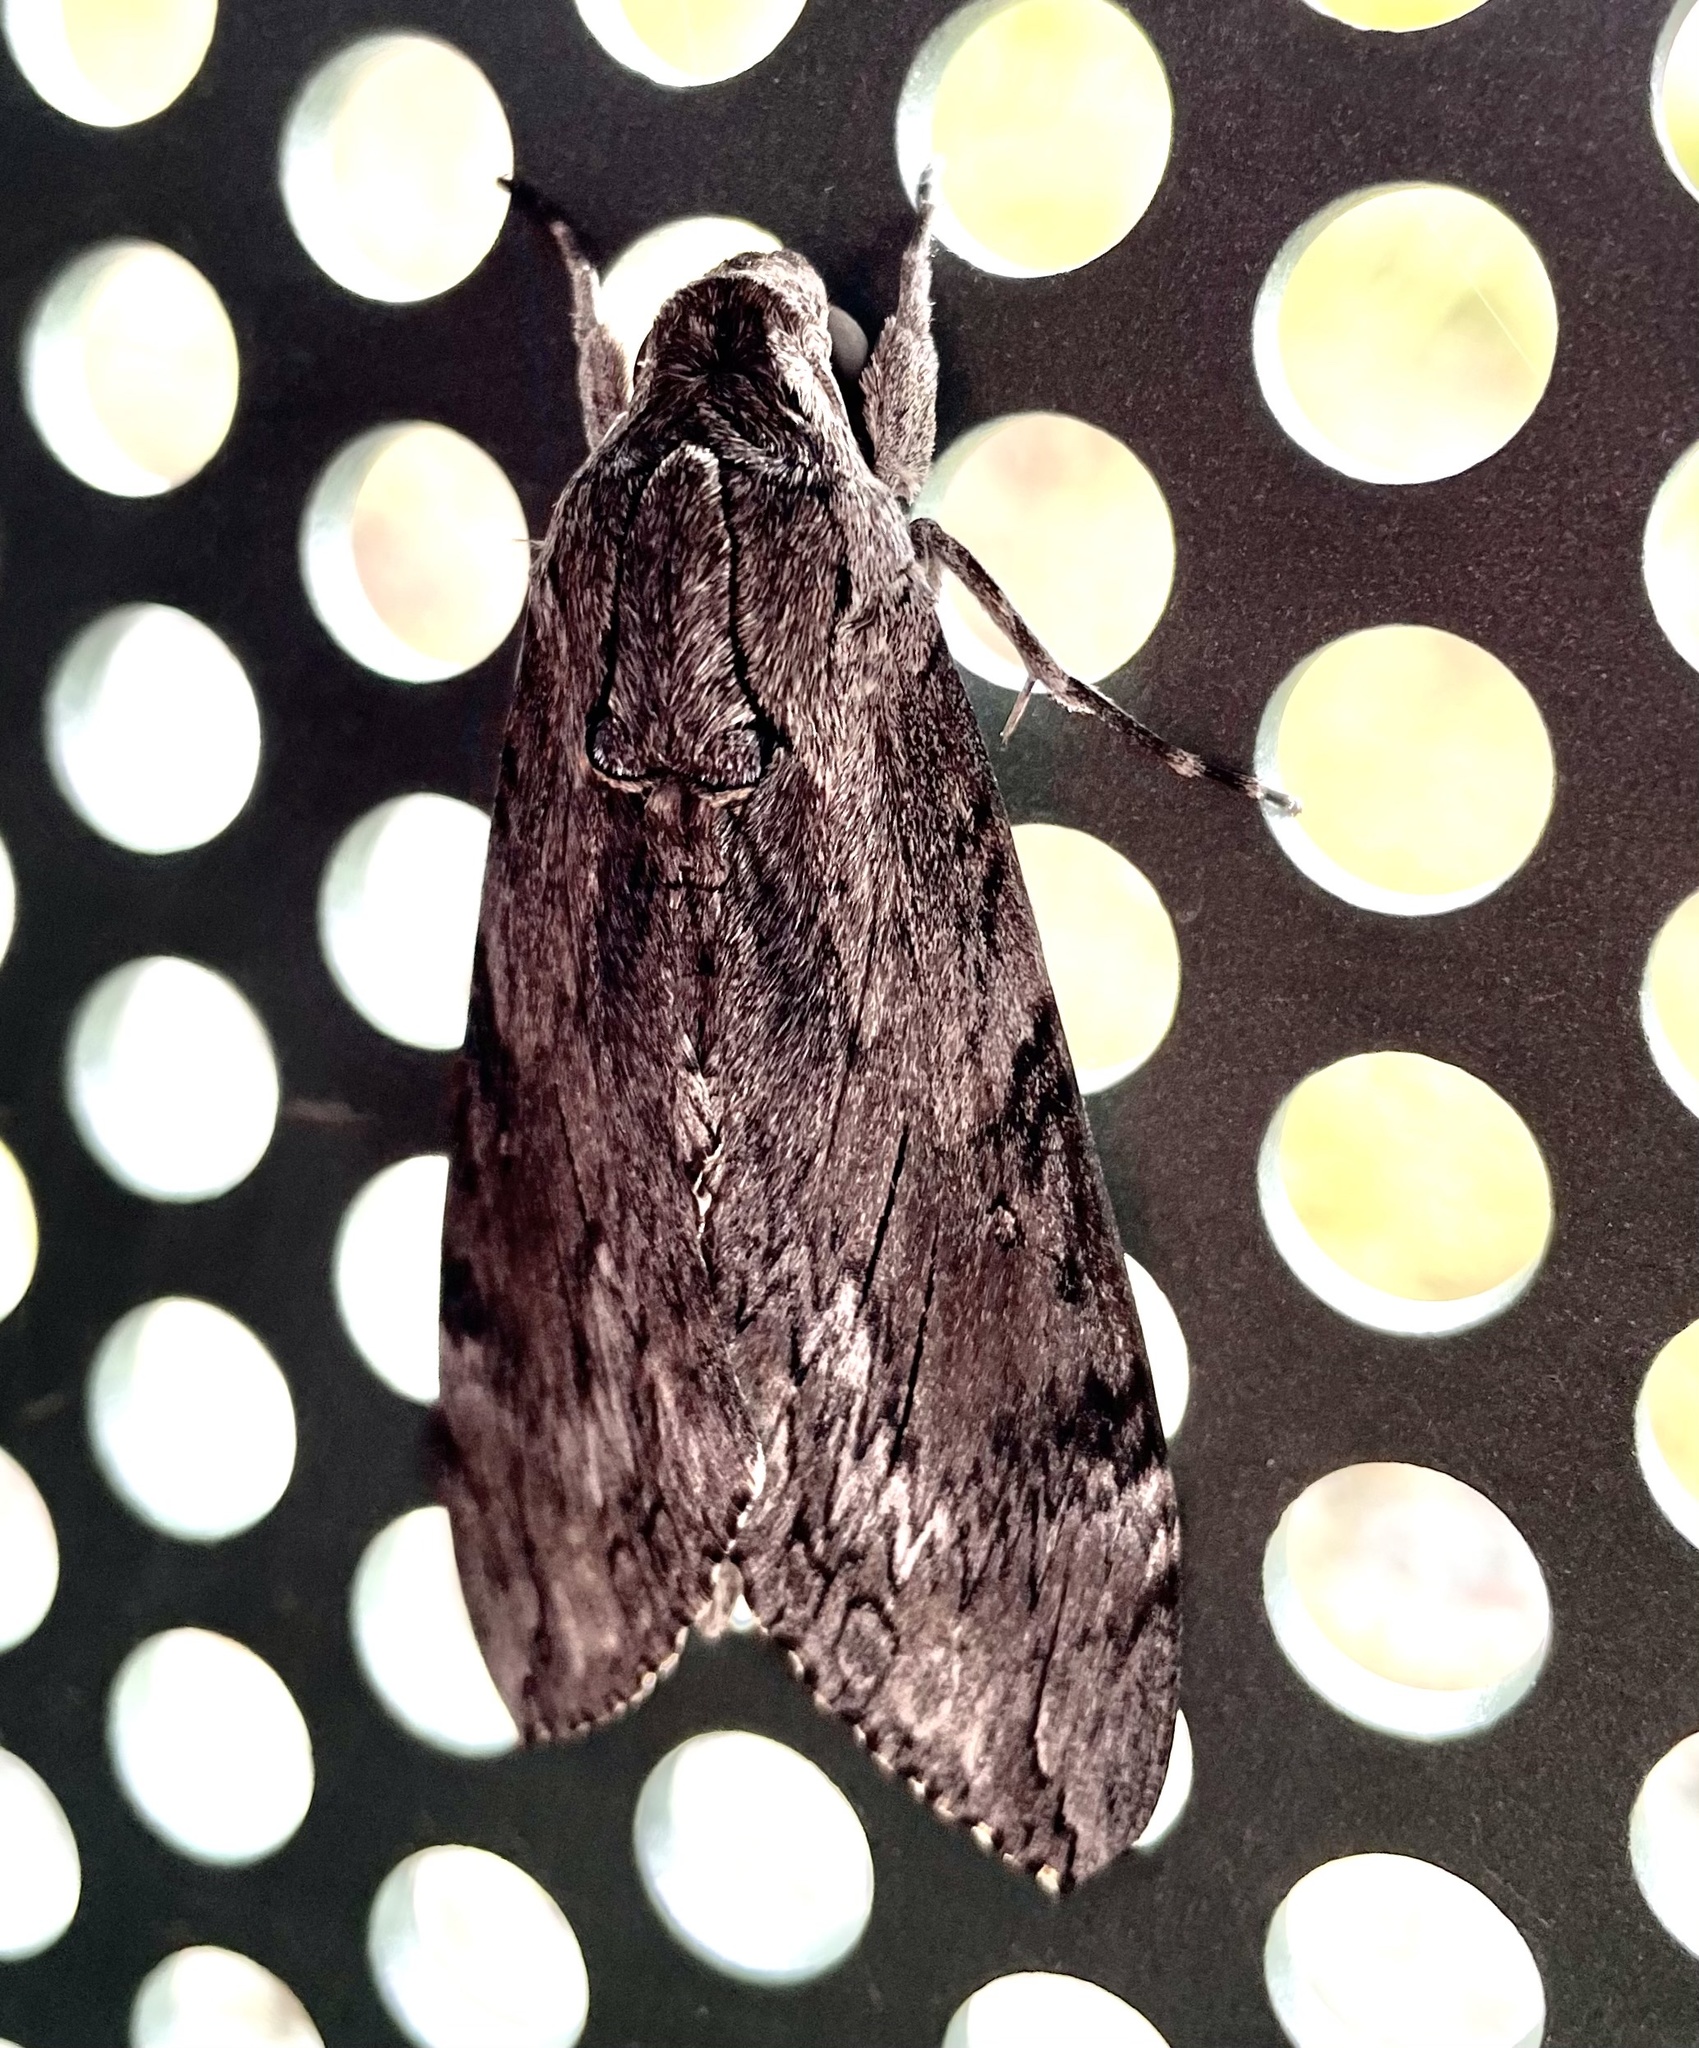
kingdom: Animalia
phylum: Arthropoda
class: Insecta
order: Lepidoptera
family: Sphingidae
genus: Agrius
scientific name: Agrius convolvuli
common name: Convolvulus hawkmoth
